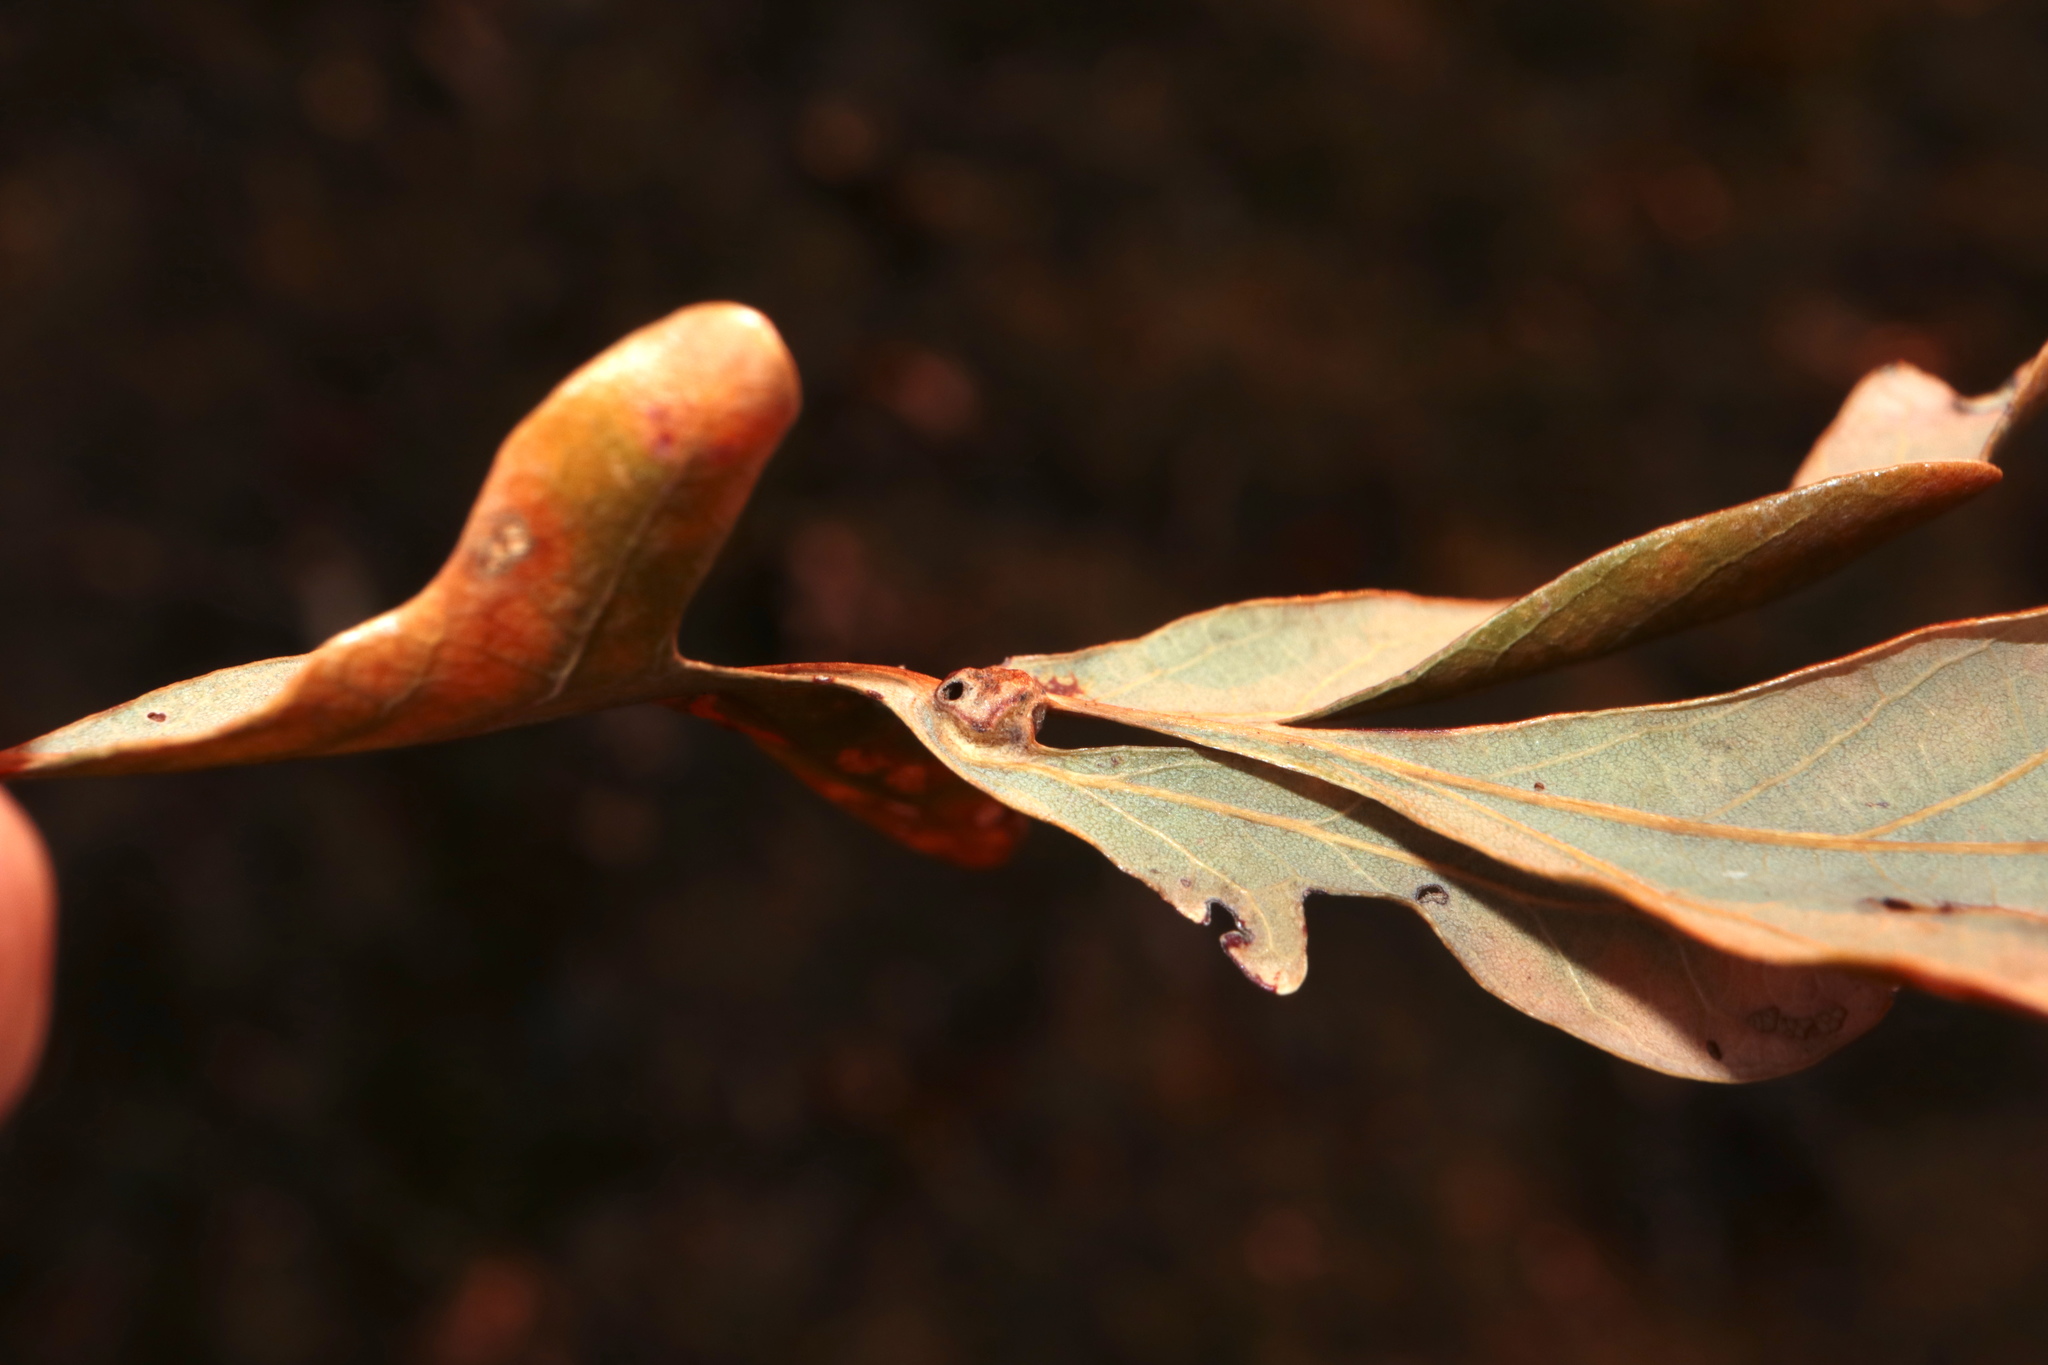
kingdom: Animalia
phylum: Arthropoda
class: Insecta
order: Hymenoptera
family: Cynipidae
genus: Andricus
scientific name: Andricus
